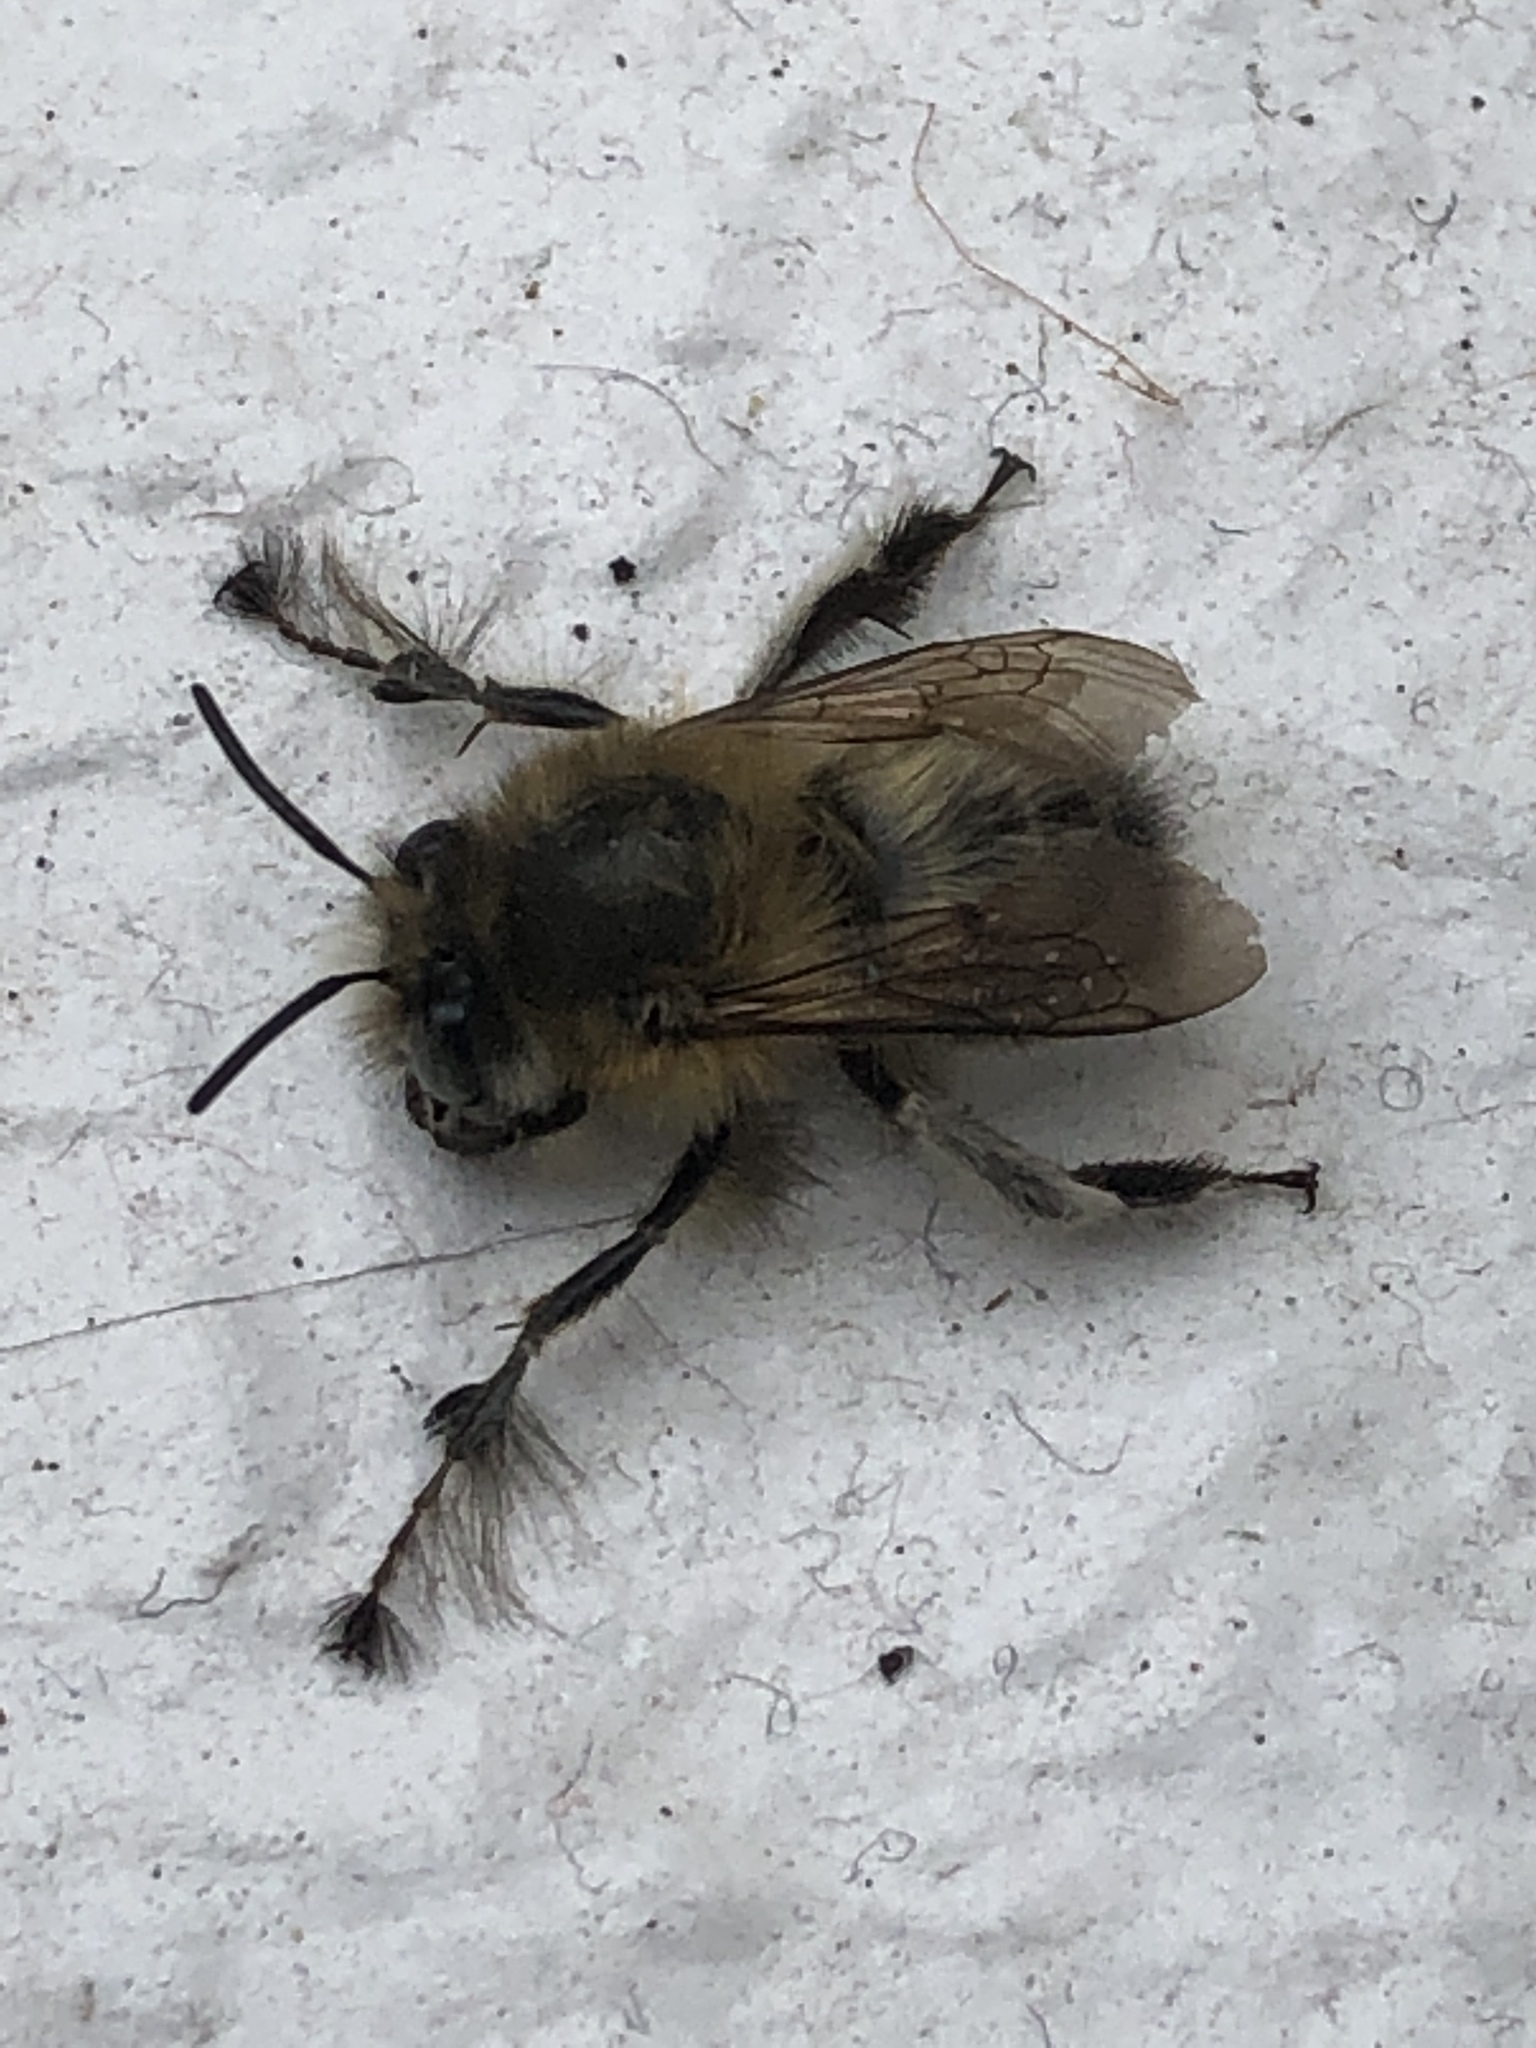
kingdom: Animalia
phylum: Arthropoda
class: Insecta
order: Hymenoptera
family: Apidae
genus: Anthophora
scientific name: Anthophora plumipes
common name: Hairy-footed flower bee
